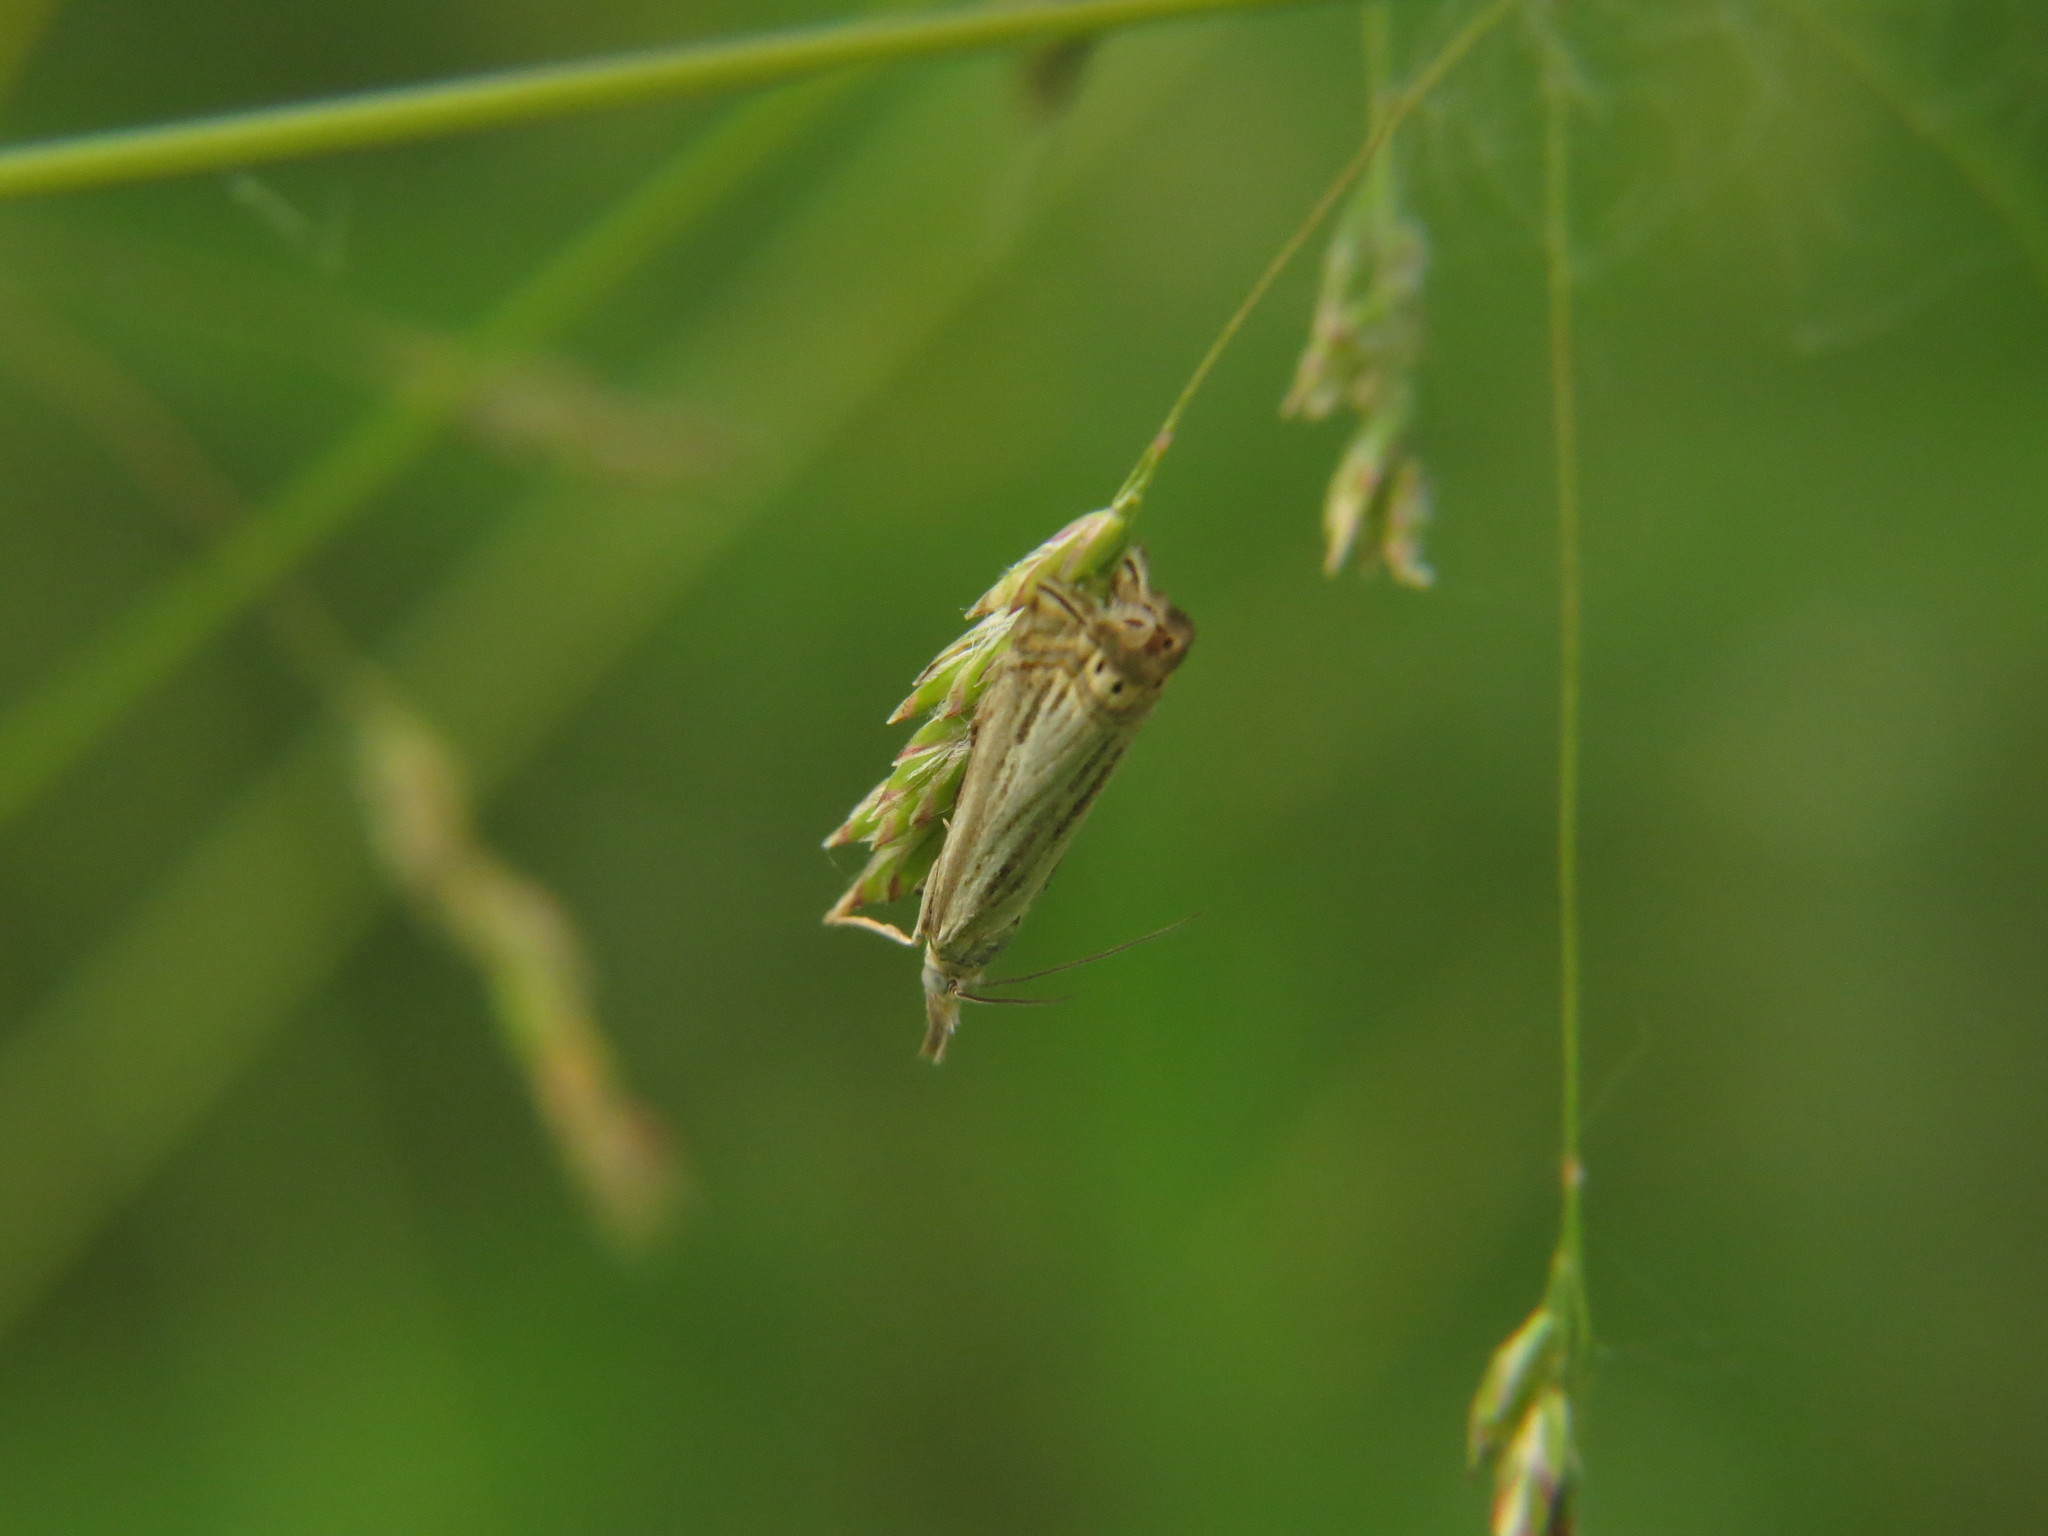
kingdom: Animalia
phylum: Arthropoda
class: Insecta
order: Lepidoptera
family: Crambidae
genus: Chrysoteuchia
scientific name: Chrysoteuchia topiarius
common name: Topiary grass-veneer
